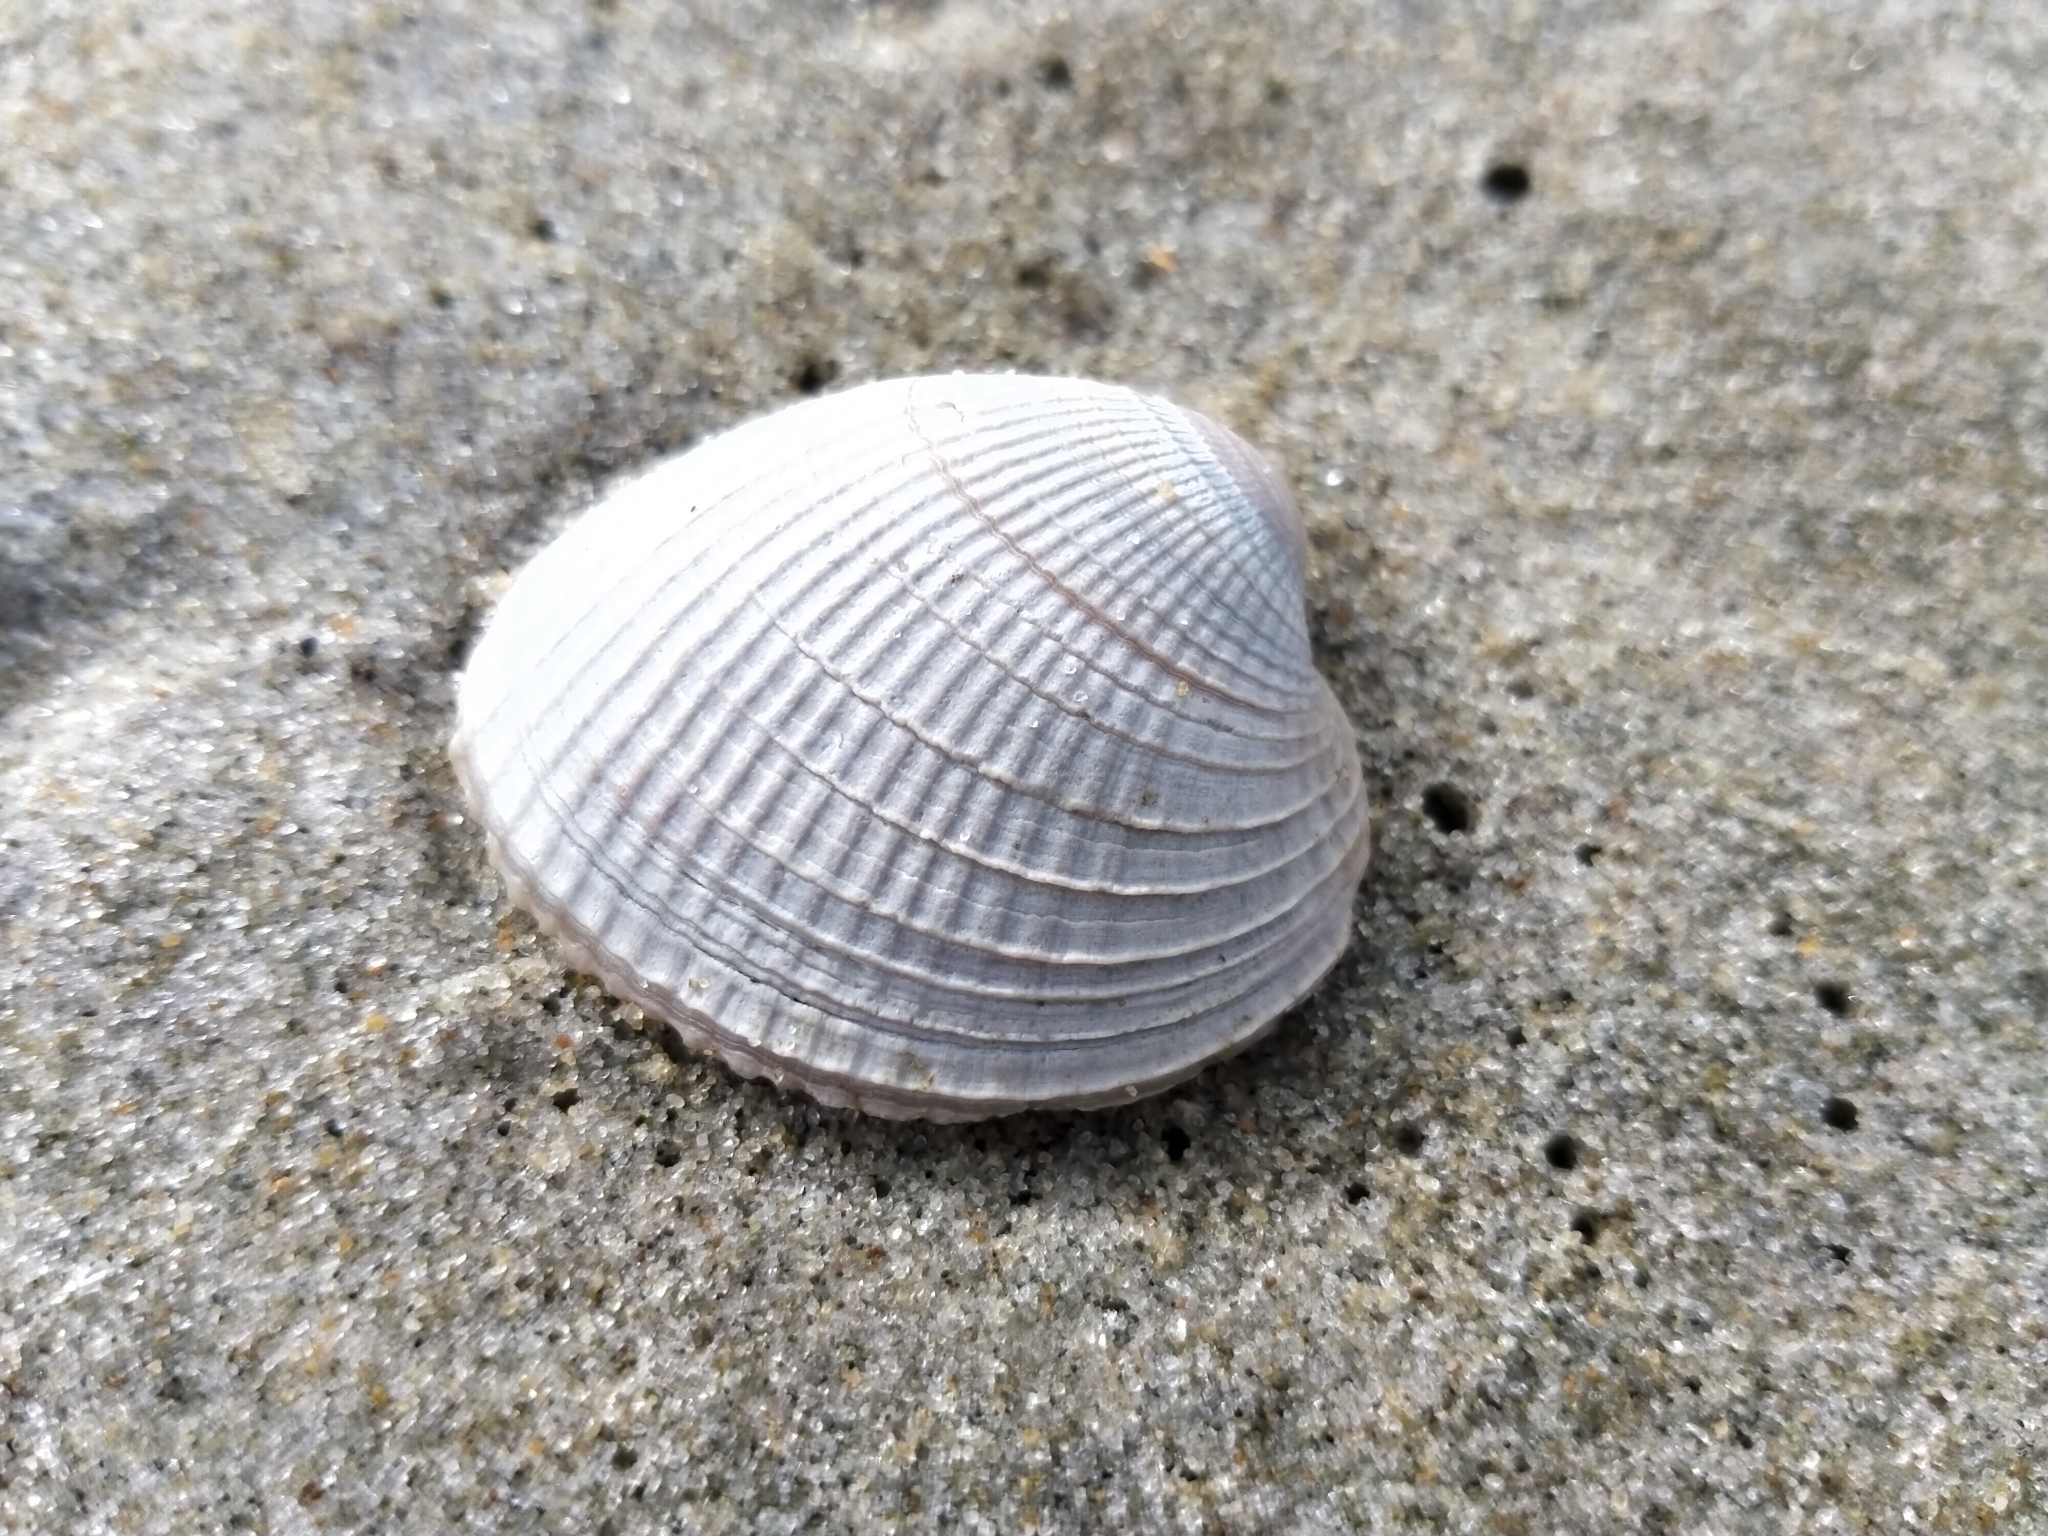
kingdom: Animalia
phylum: Mollusca
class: Bivalvia
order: Venerida
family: Veneridae
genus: Austrovenus
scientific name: Austrovenus stutchburyi
